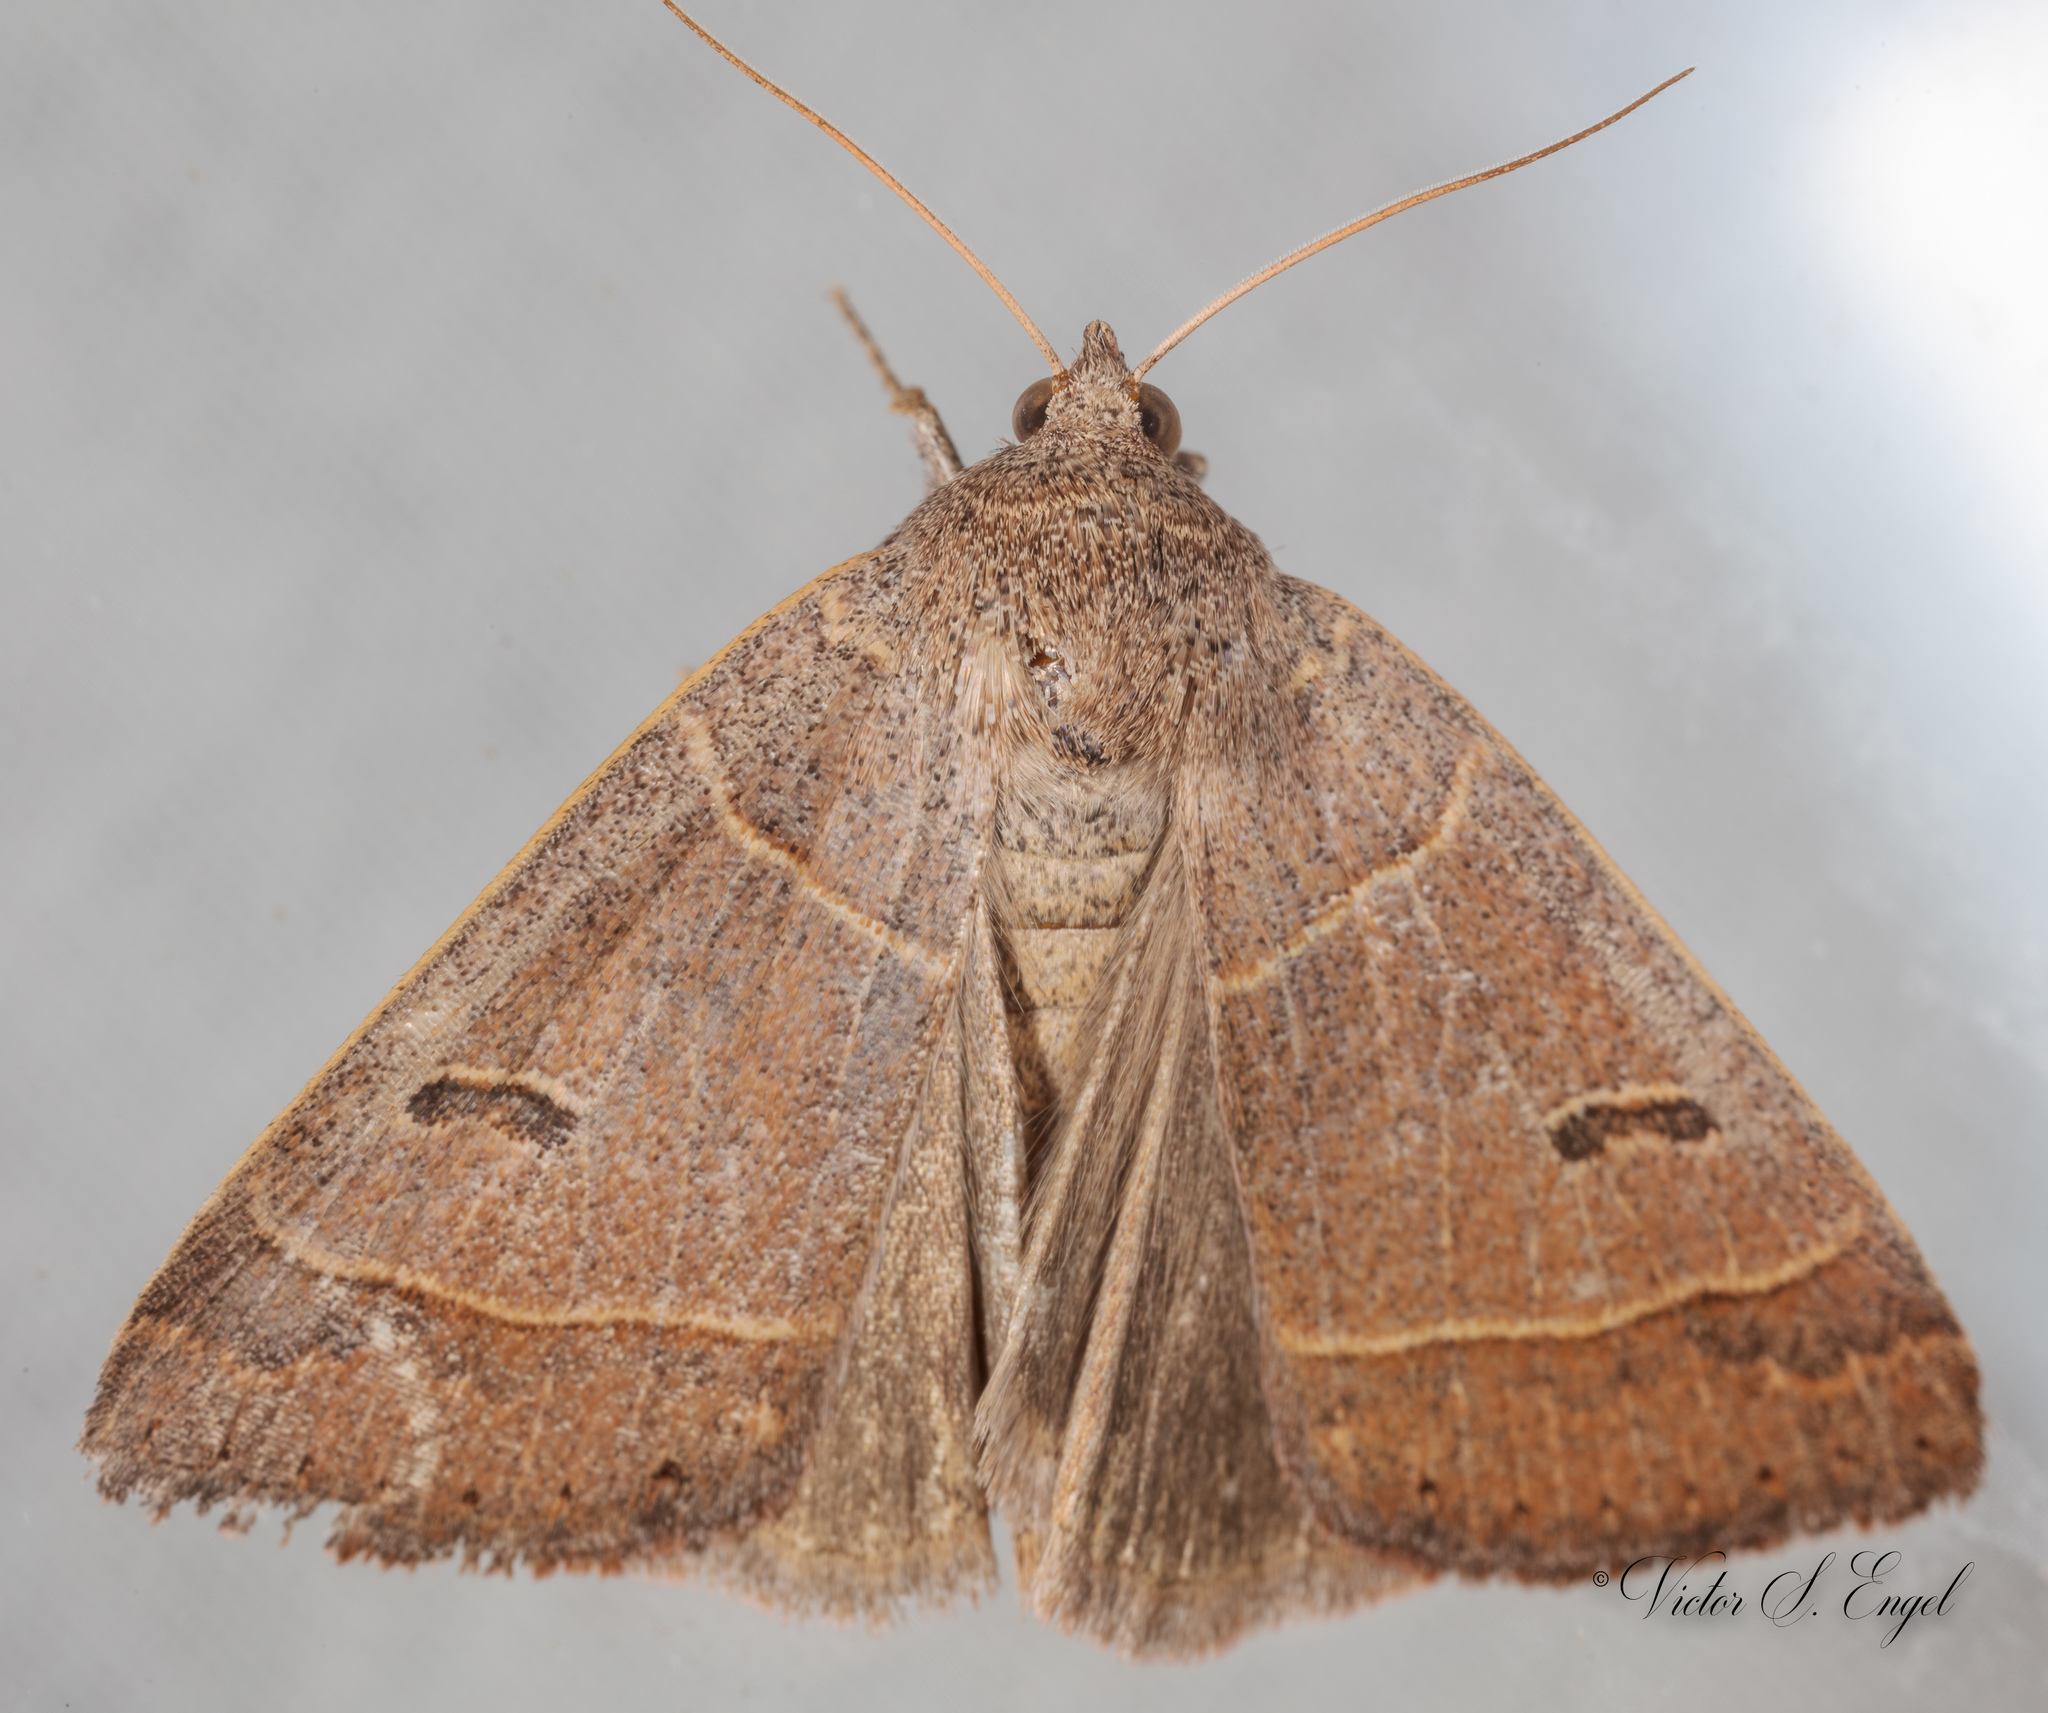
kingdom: Animalia
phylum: Arthropoda
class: Insecta
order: Lepidoptera
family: Erebidae
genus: Phoberia
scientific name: Phoberia atomaris
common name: Common oak moth
